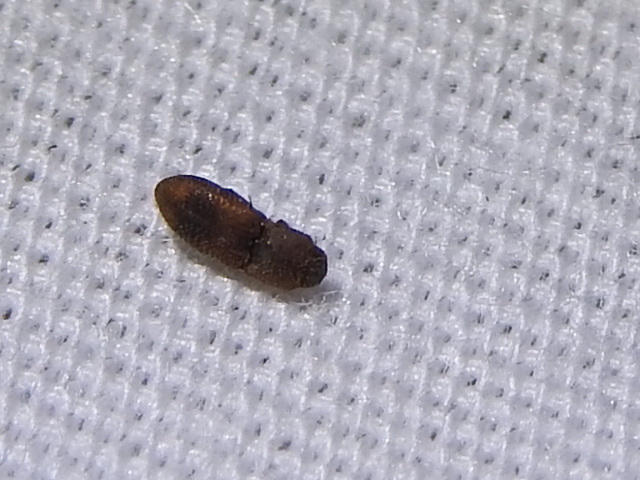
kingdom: Animalia
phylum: Arthropoda
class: Insecta
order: Coleoptera
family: Elateridae
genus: Rismethus
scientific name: Rismethus scobinula
